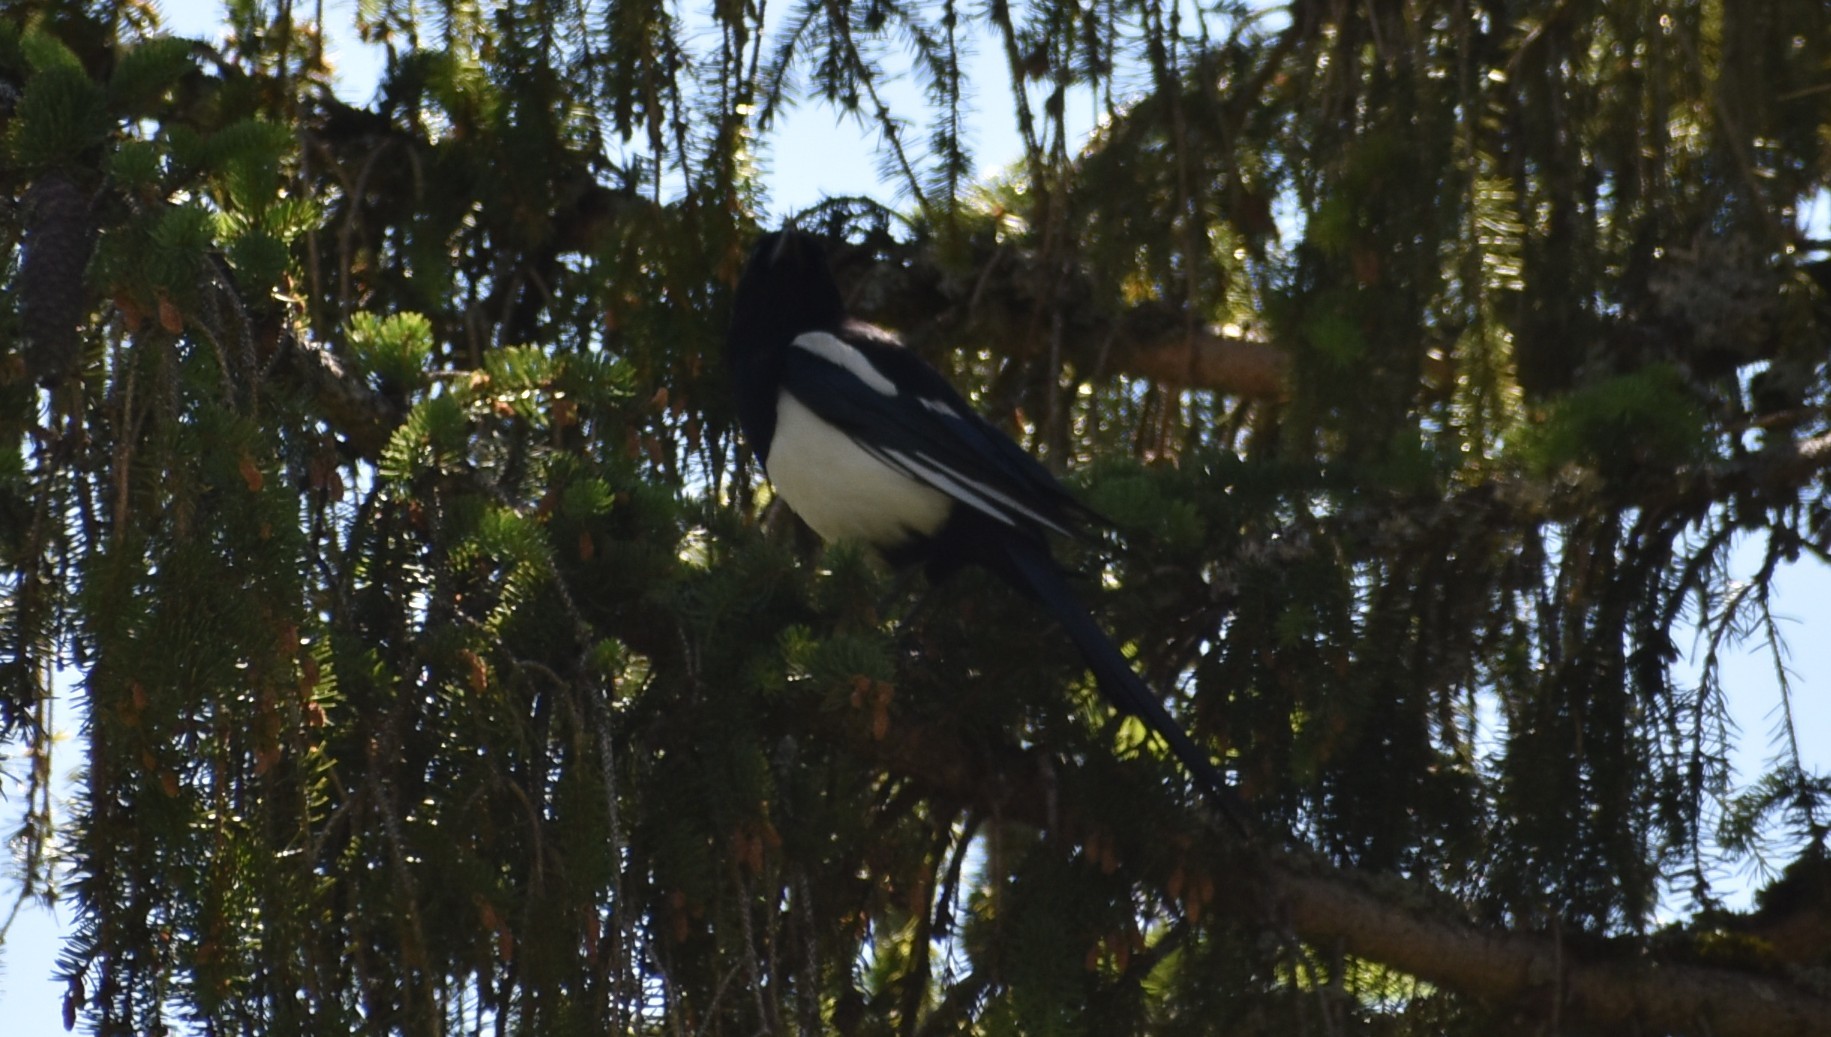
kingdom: Animalia
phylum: Chordata
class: Aves
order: Passeriformes
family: Corvidae
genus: Pica
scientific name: Pica pica
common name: Eurasian magpie
